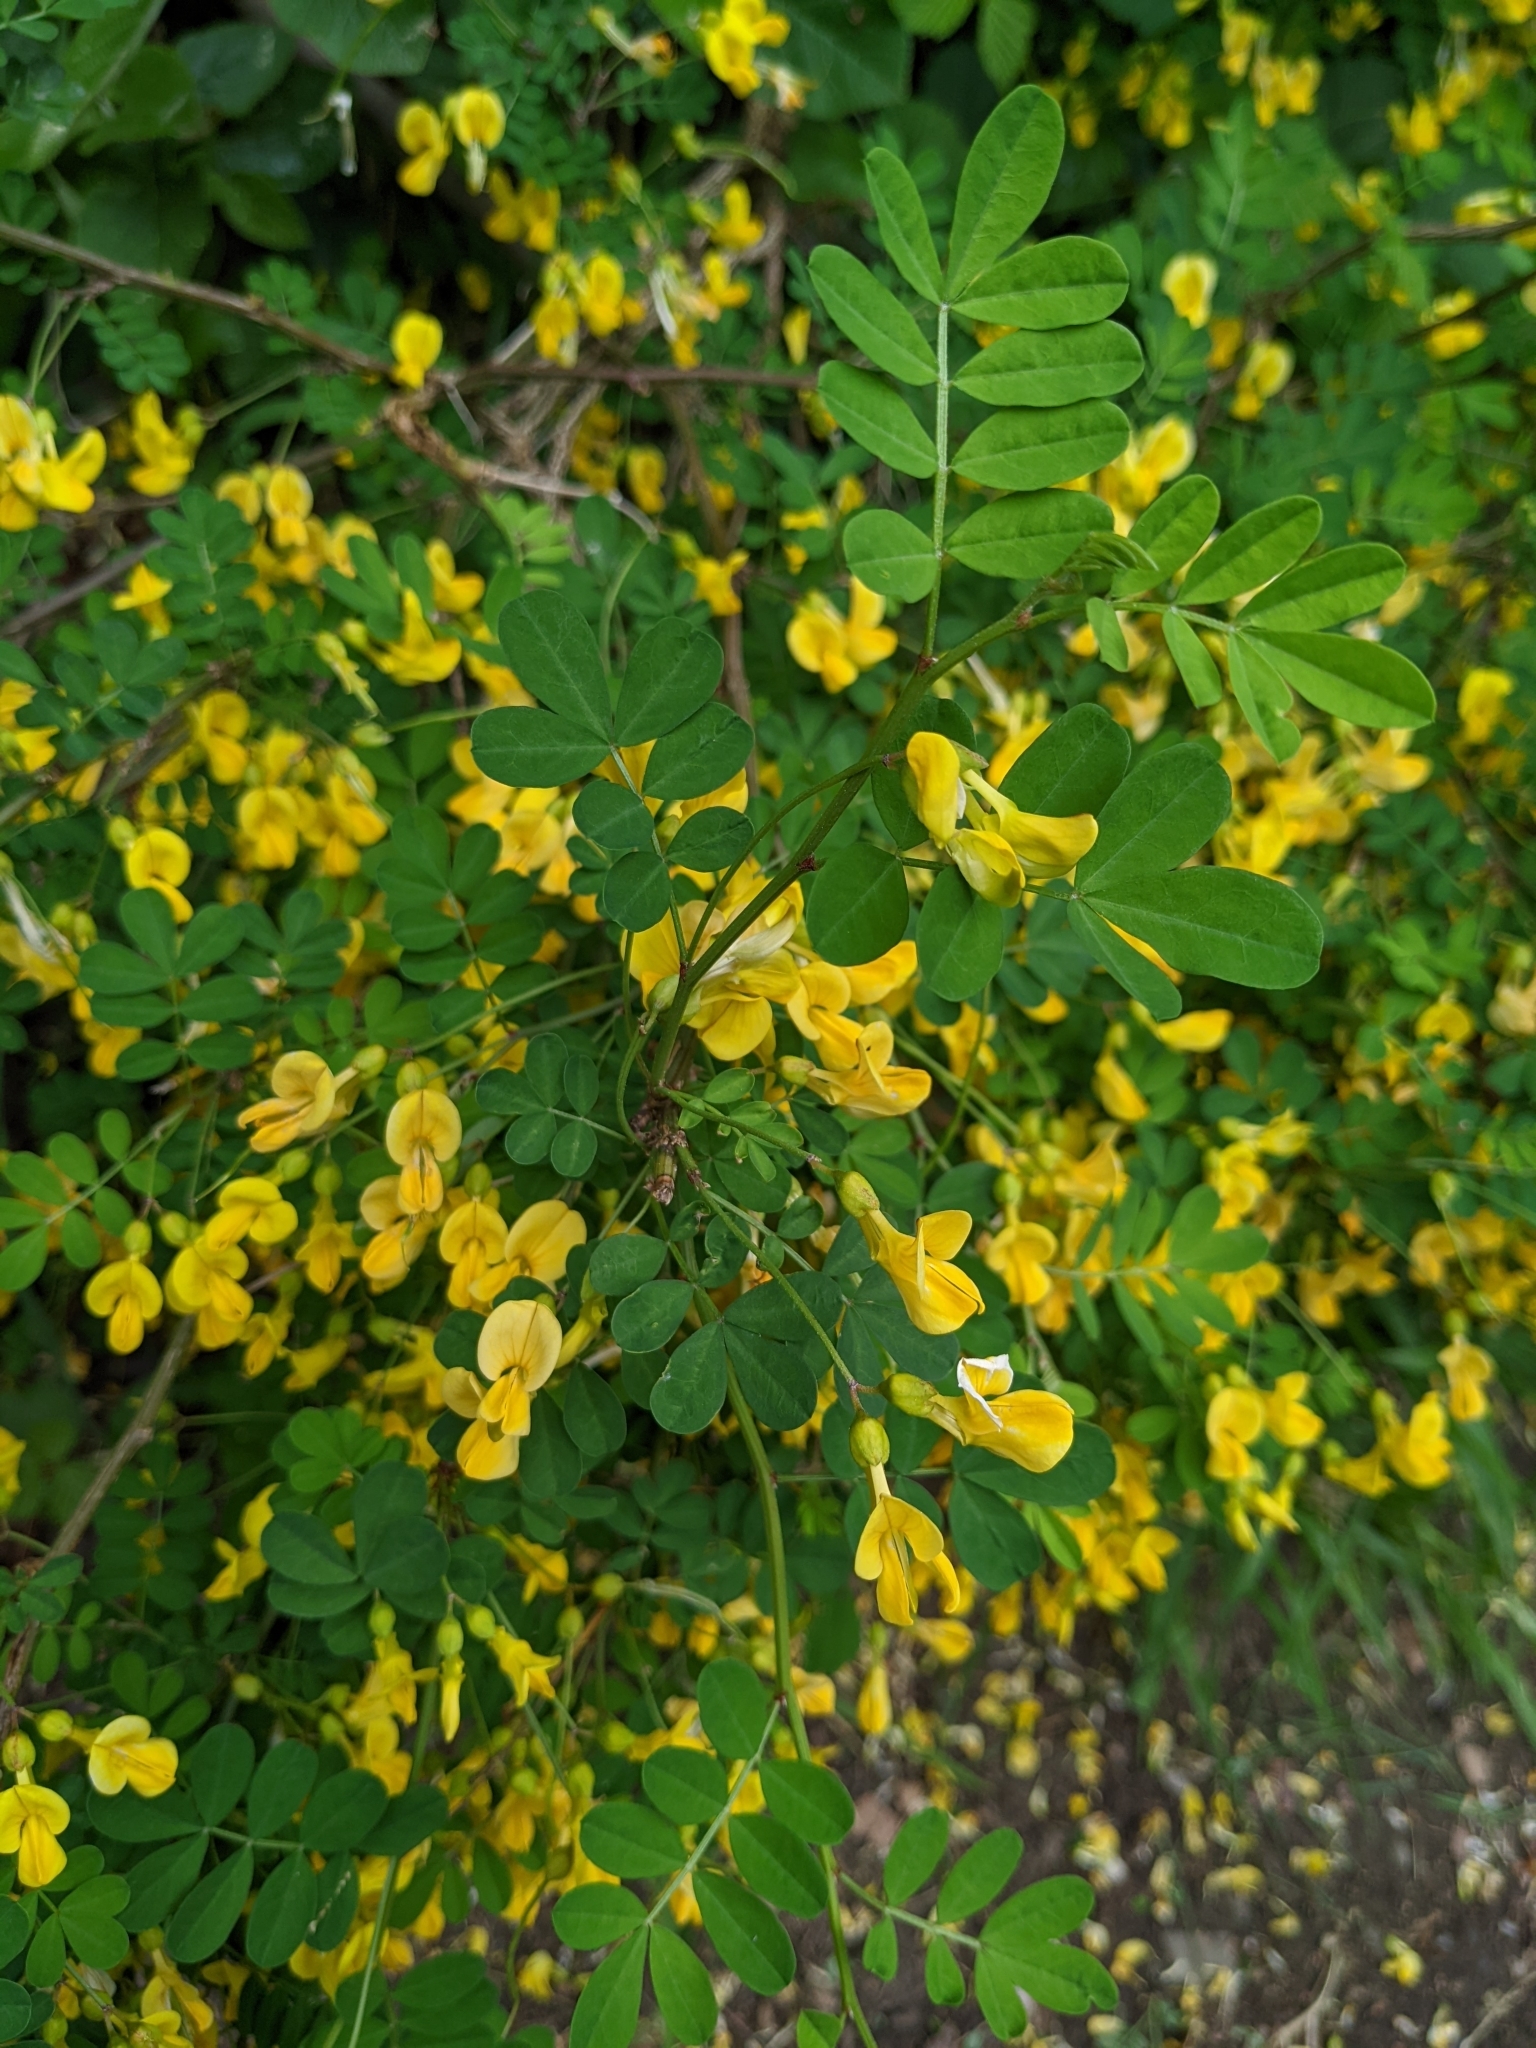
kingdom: Plantae
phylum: Tracheophyta
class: Magnoliopsida
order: Fabales
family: Fabaceae
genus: Hippocrepis
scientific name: Hippocrepis emerus
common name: Scorpion senna
